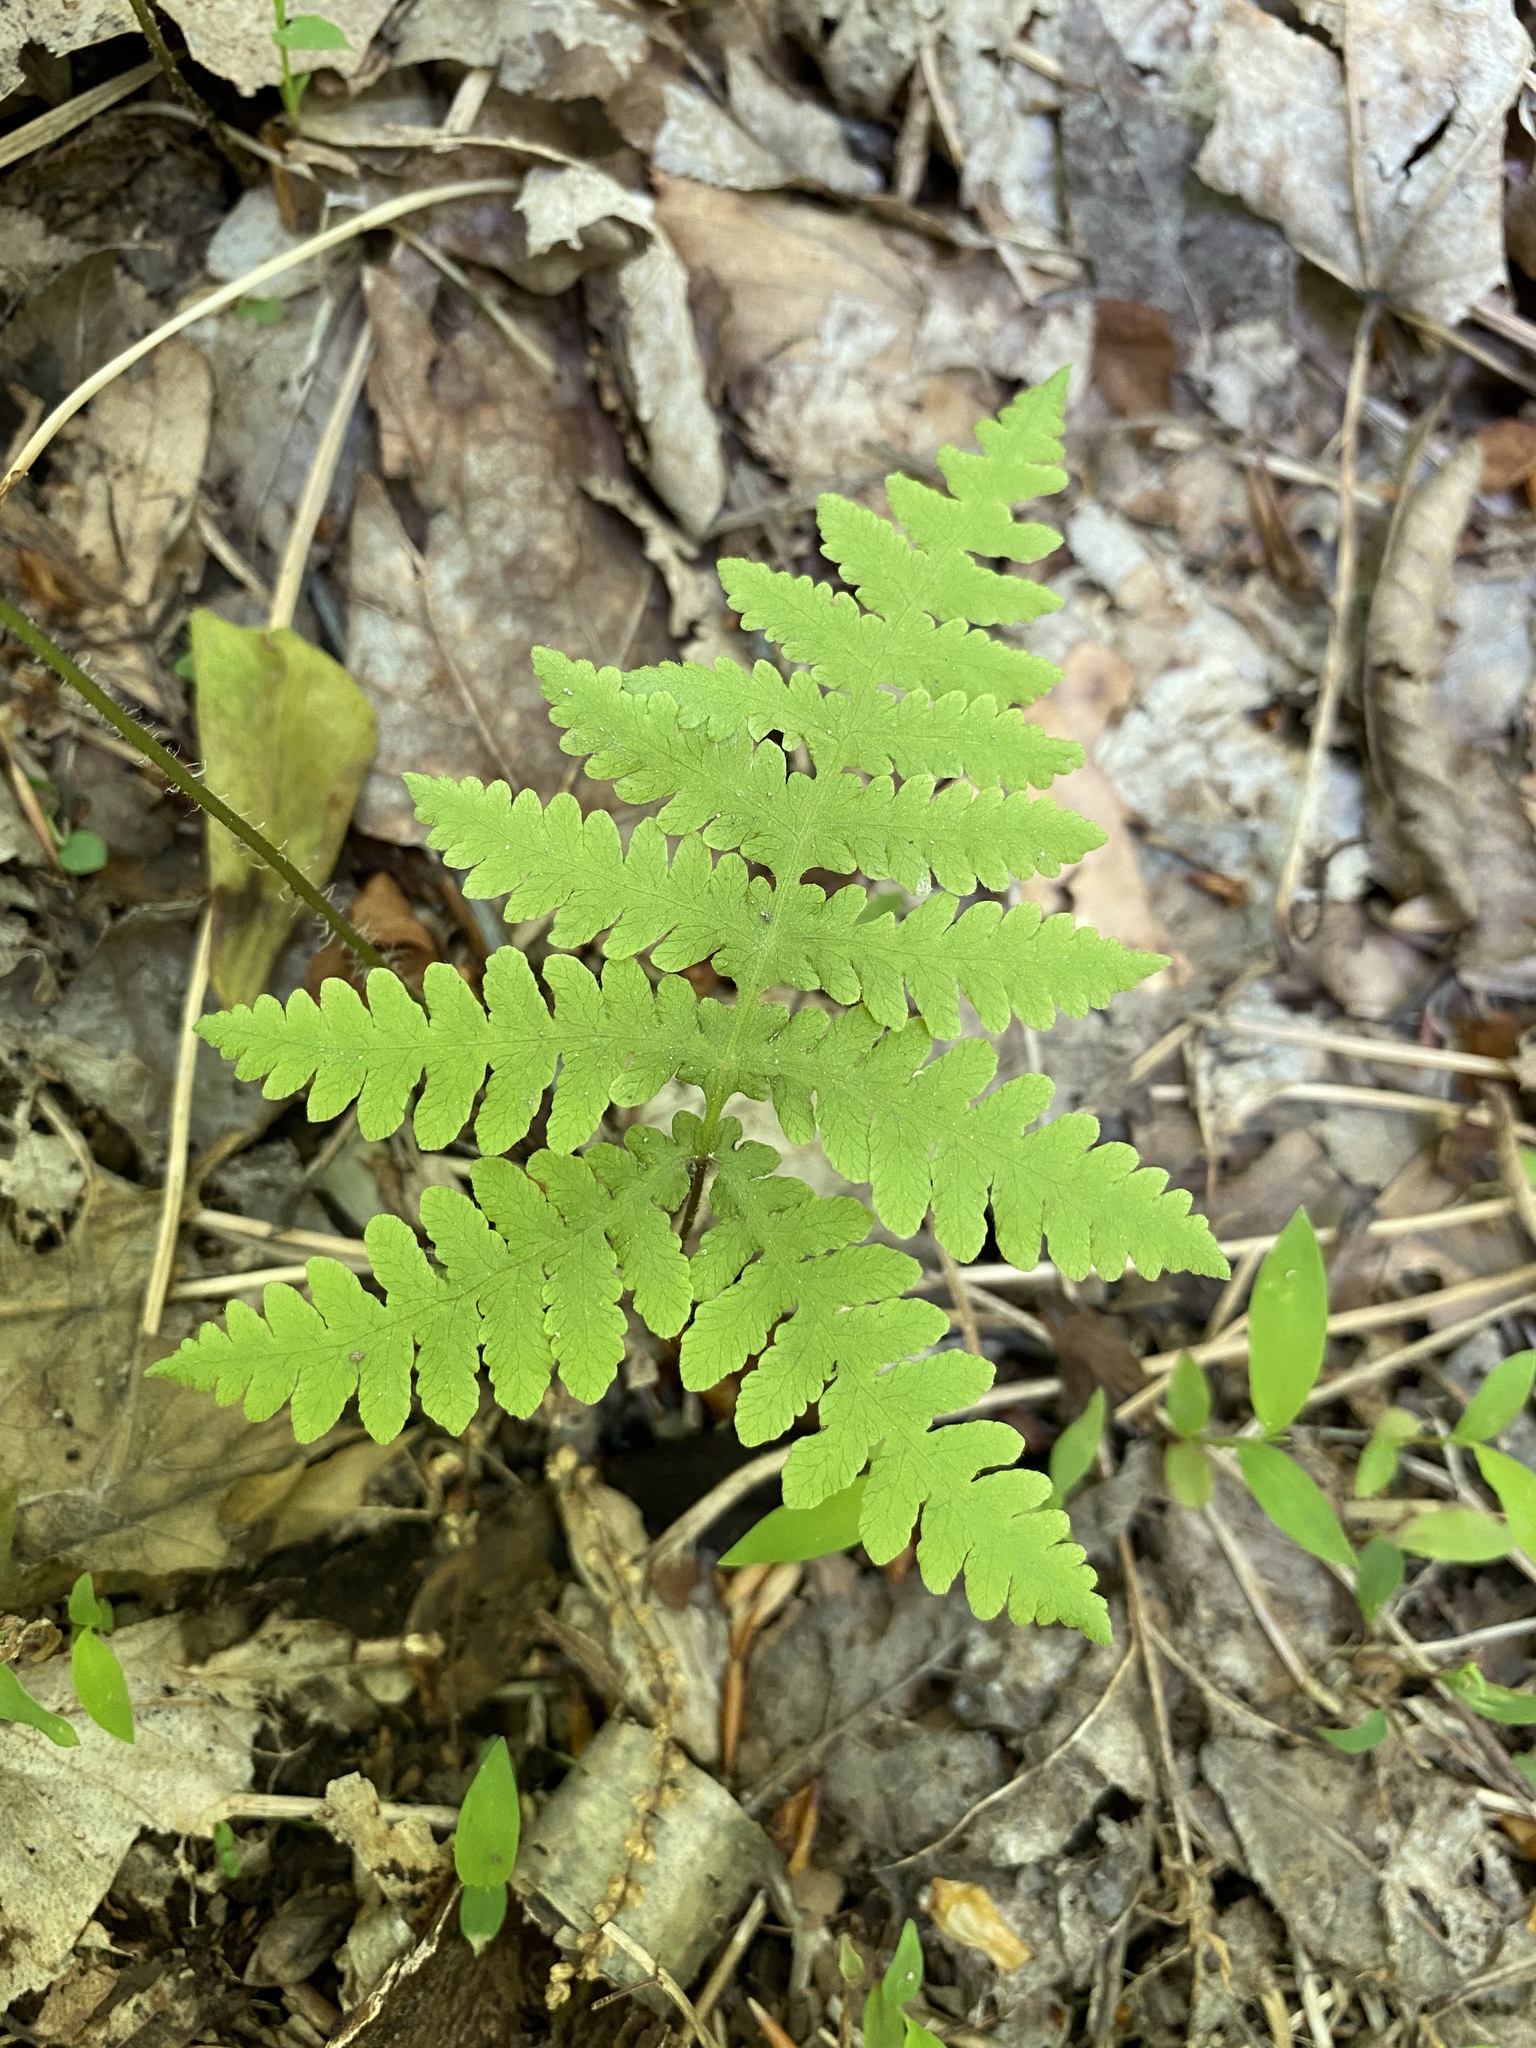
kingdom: Plantae
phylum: Tracheophyta
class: Polypodiopsida
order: Polypodiales
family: Thelypteridaceae
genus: Phegopteris
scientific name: Phegopteris hexagonoptera
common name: Broad beech fern
